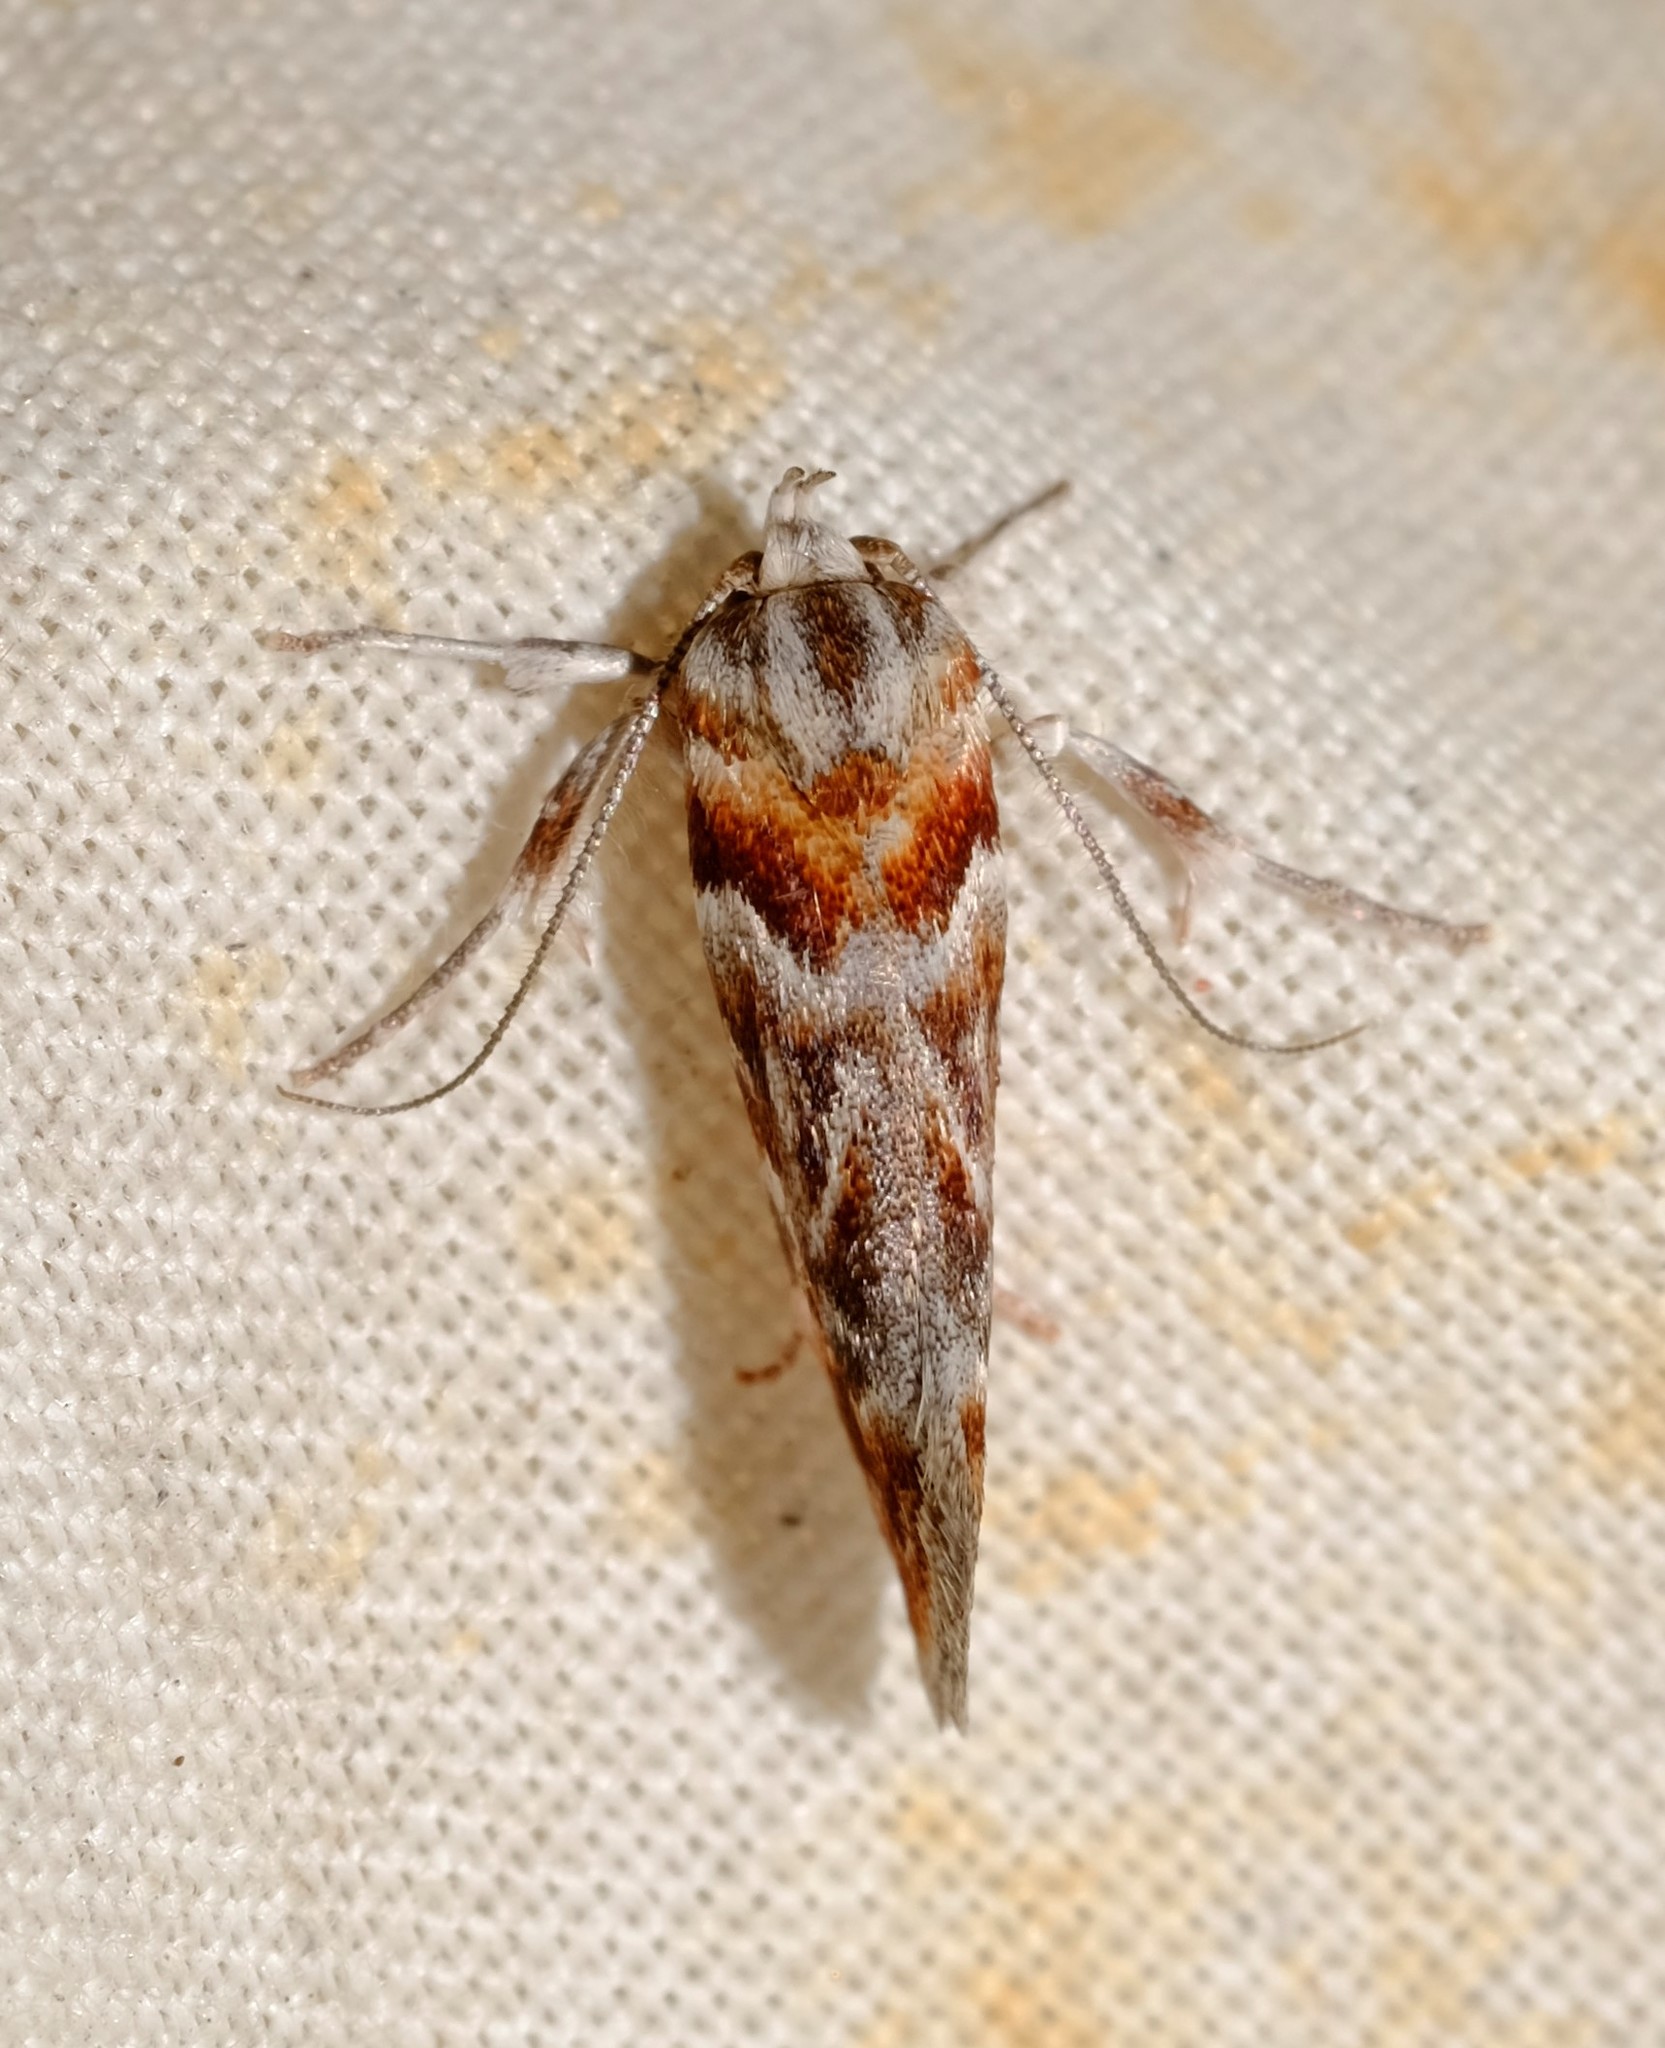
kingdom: Animalia
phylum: Arthropoda
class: Insecta
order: Lepidoptera
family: Oecophoridae
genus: Acmotoma
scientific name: Acmotoma magniferella
